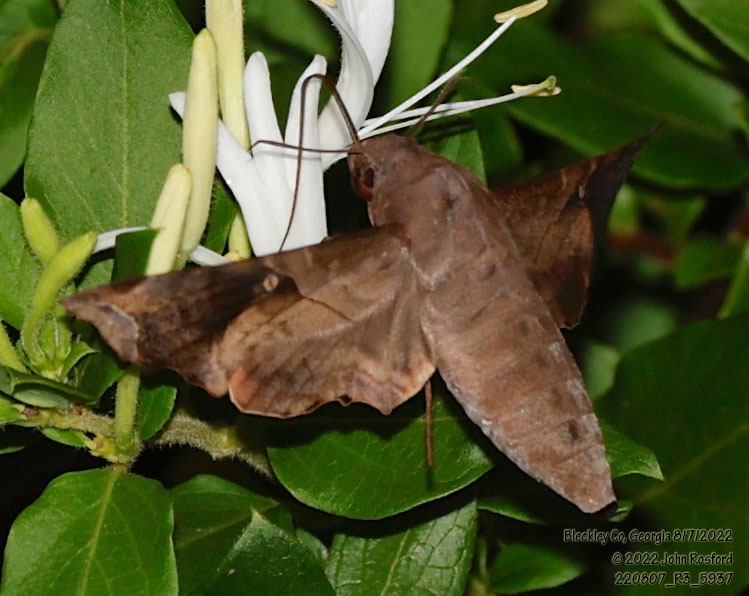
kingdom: Animalia
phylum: Arthropoda
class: Insecta
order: Lepidoptera
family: Sphingidae
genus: Enyo
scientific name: Enyo lugubris
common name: Mournful sphinx
